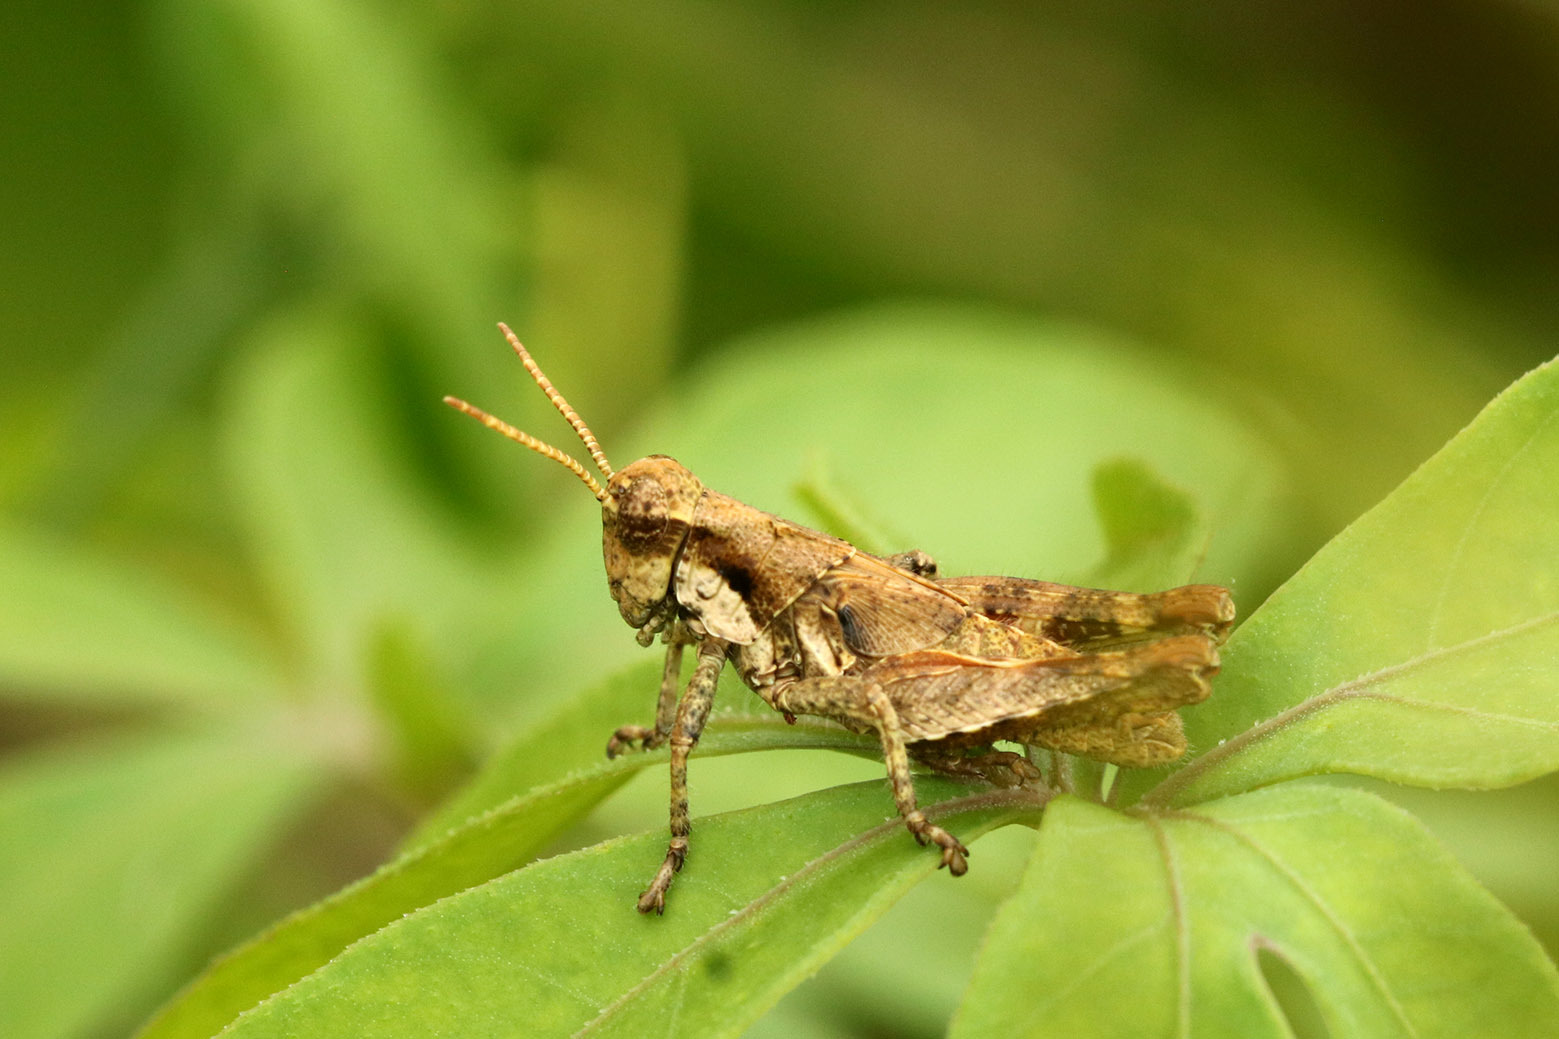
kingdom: Animalia
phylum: Arthropoda
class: Insecta
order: Orthoptera
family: Acrididae
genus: Ronderosia
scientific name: Ronderosia bergii
